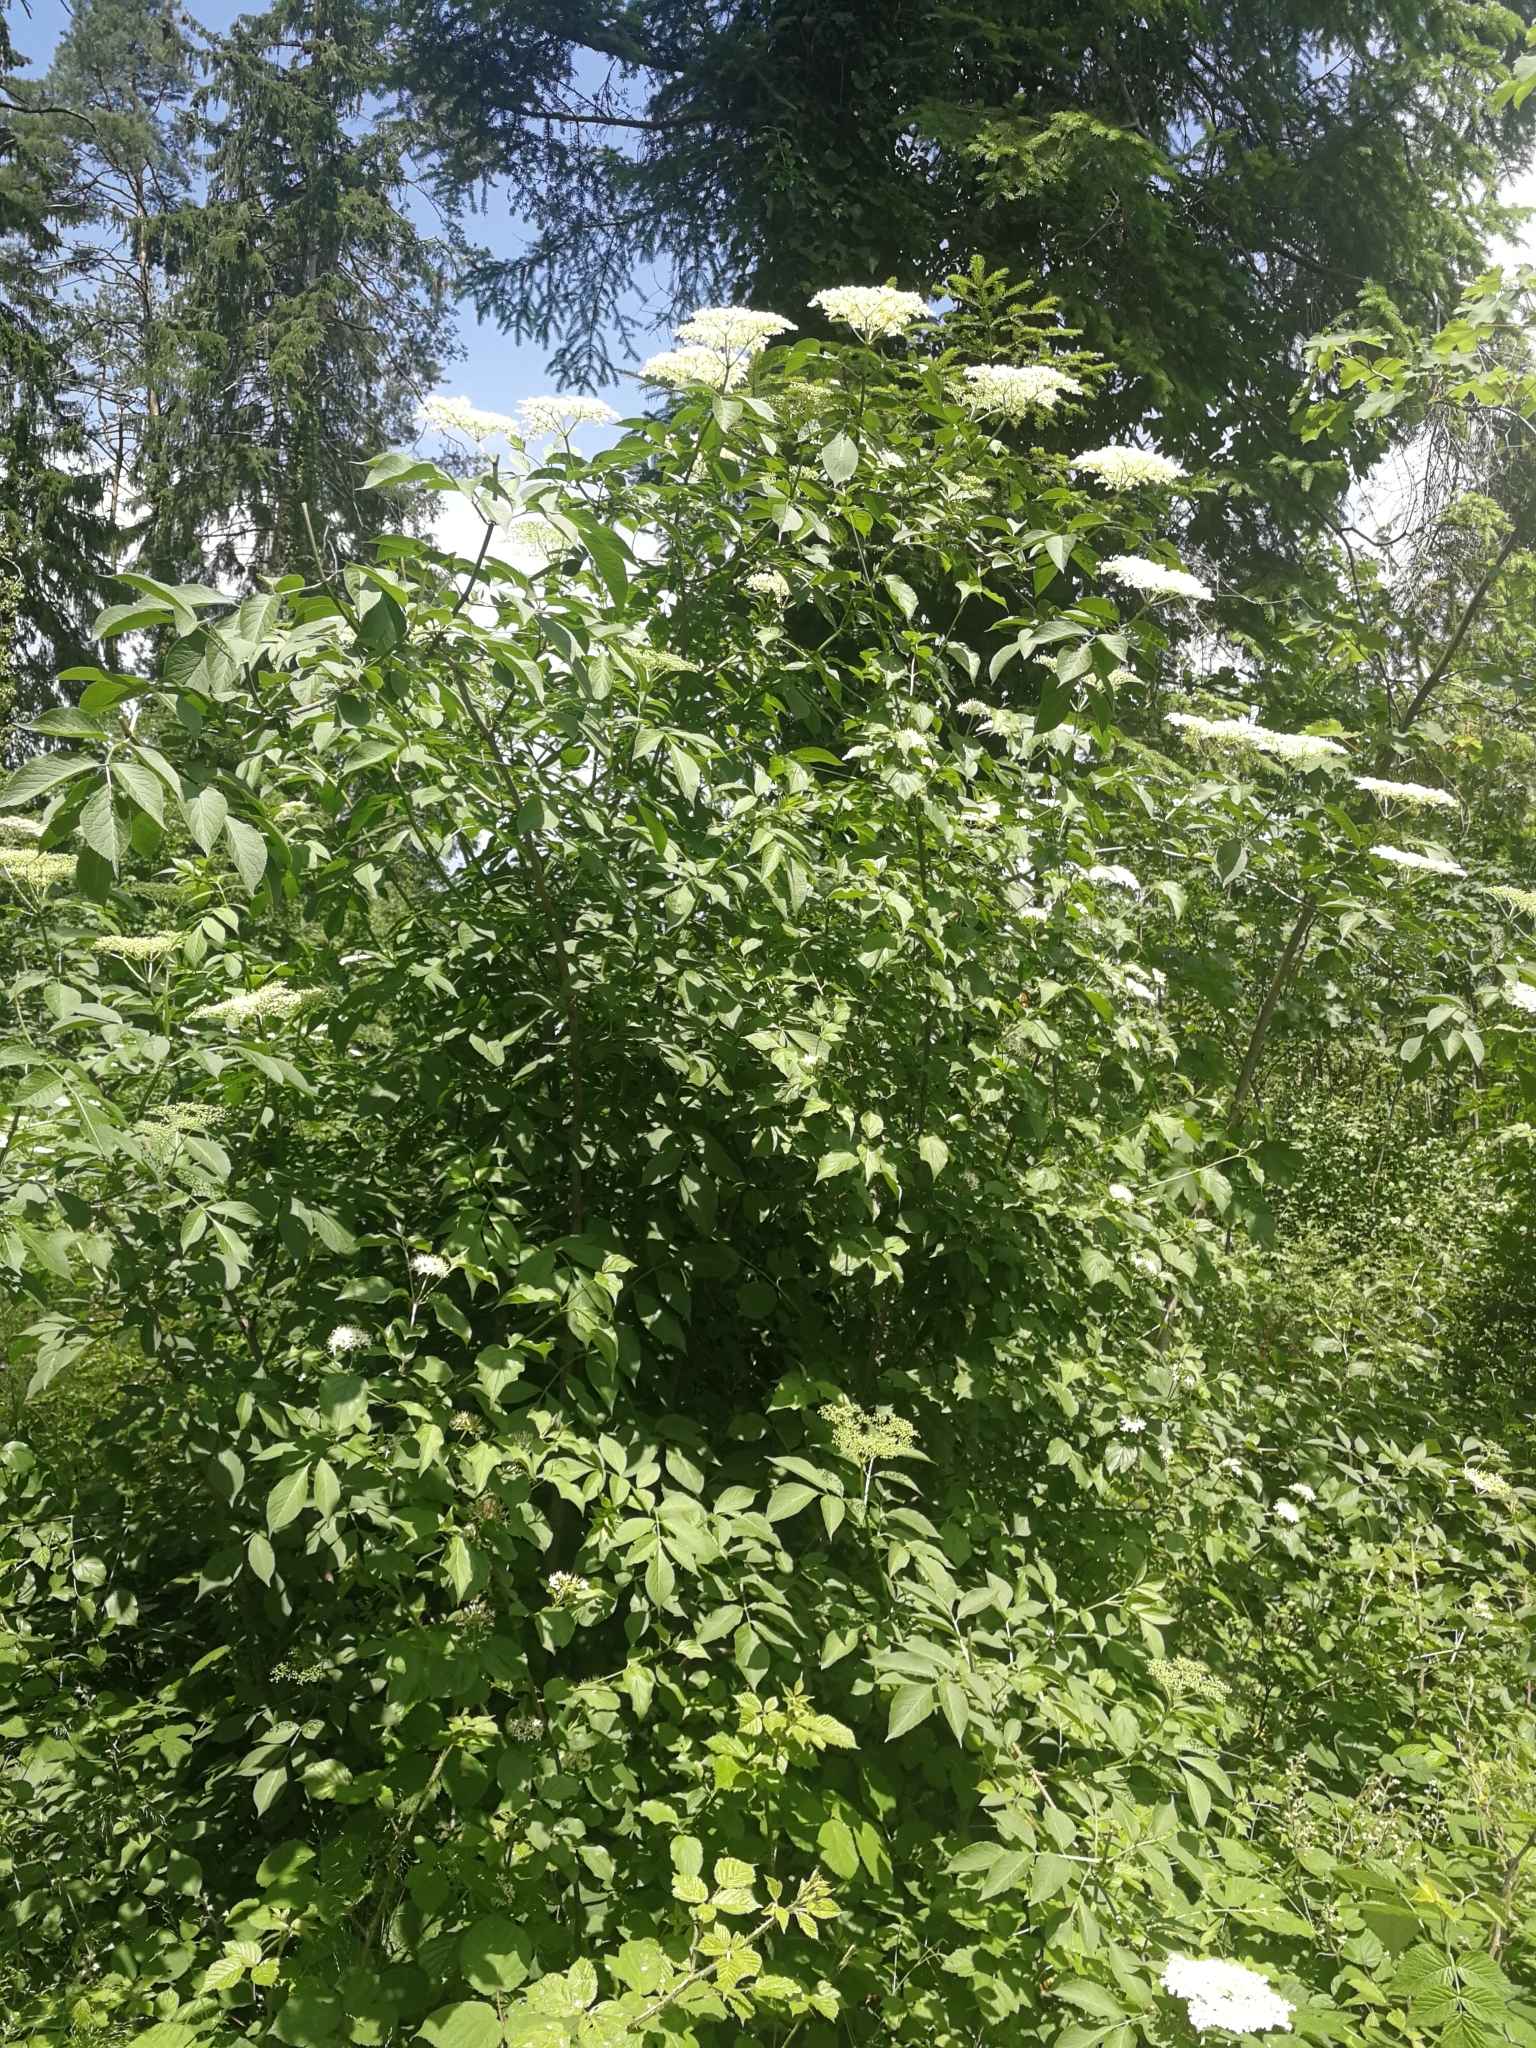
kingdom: Plantae
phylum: Tracheophyta
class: Magnoliopsida
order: Dipsacales
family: Viburnaceae
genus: Sambucus
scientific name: Sambucus nigra
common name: Elder
